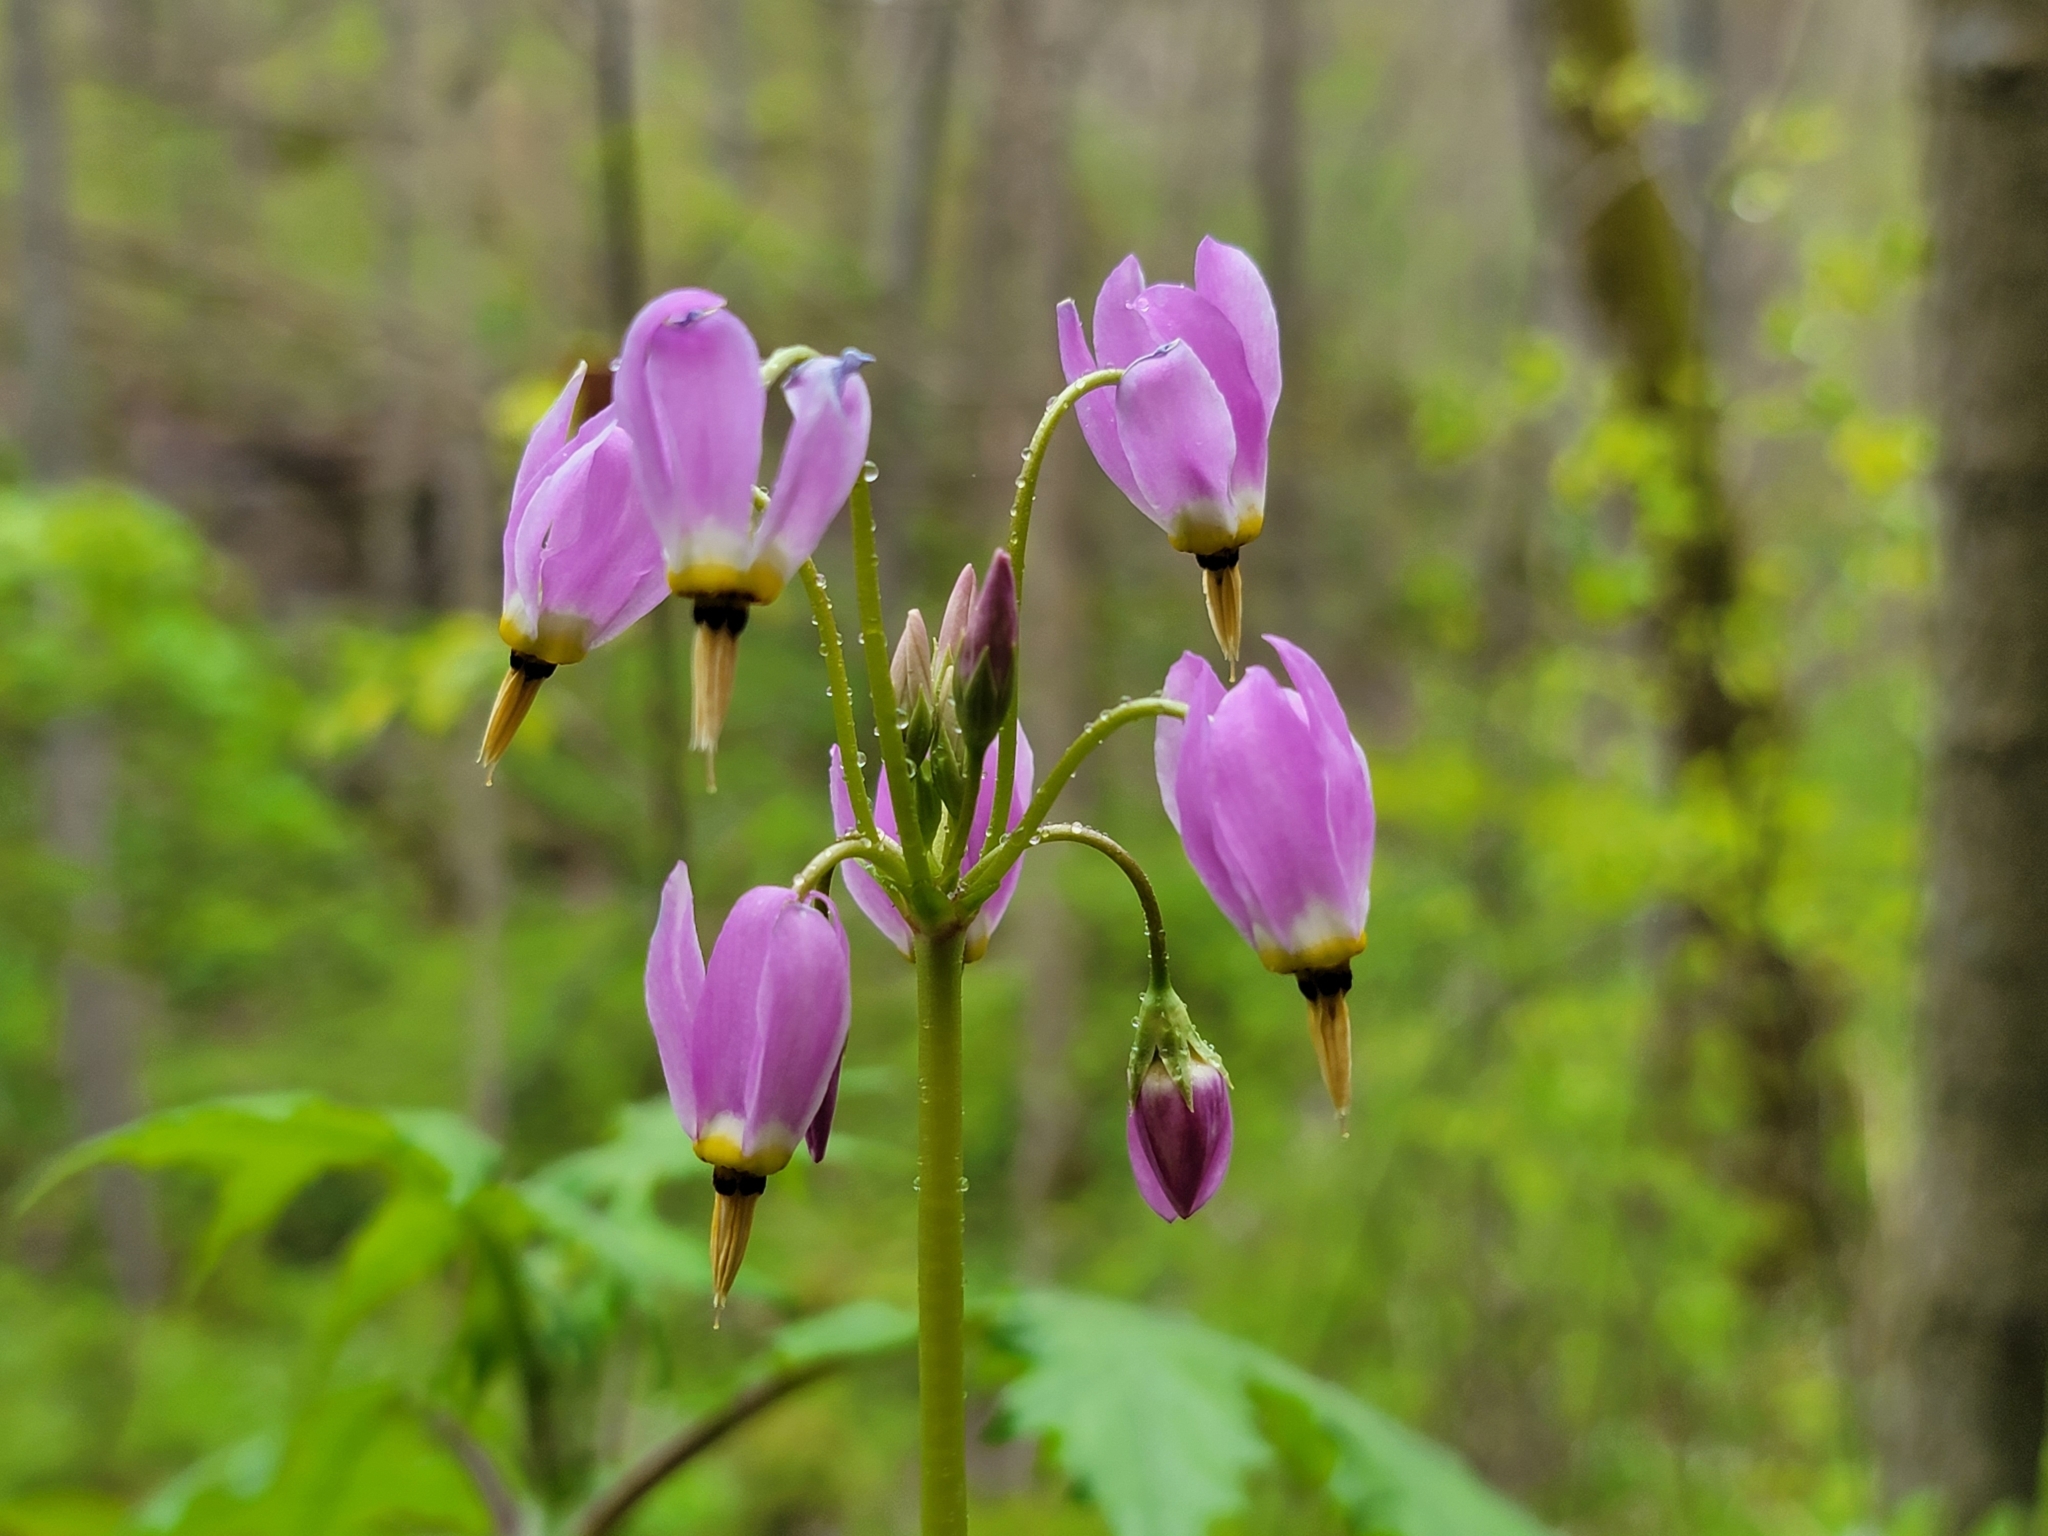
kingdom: Plantae
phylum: Tracheophyta
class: Magnoliopsida
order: Ericales
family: Primulaceae
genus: Dodecatheon
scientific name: Dodecatheon meadia
